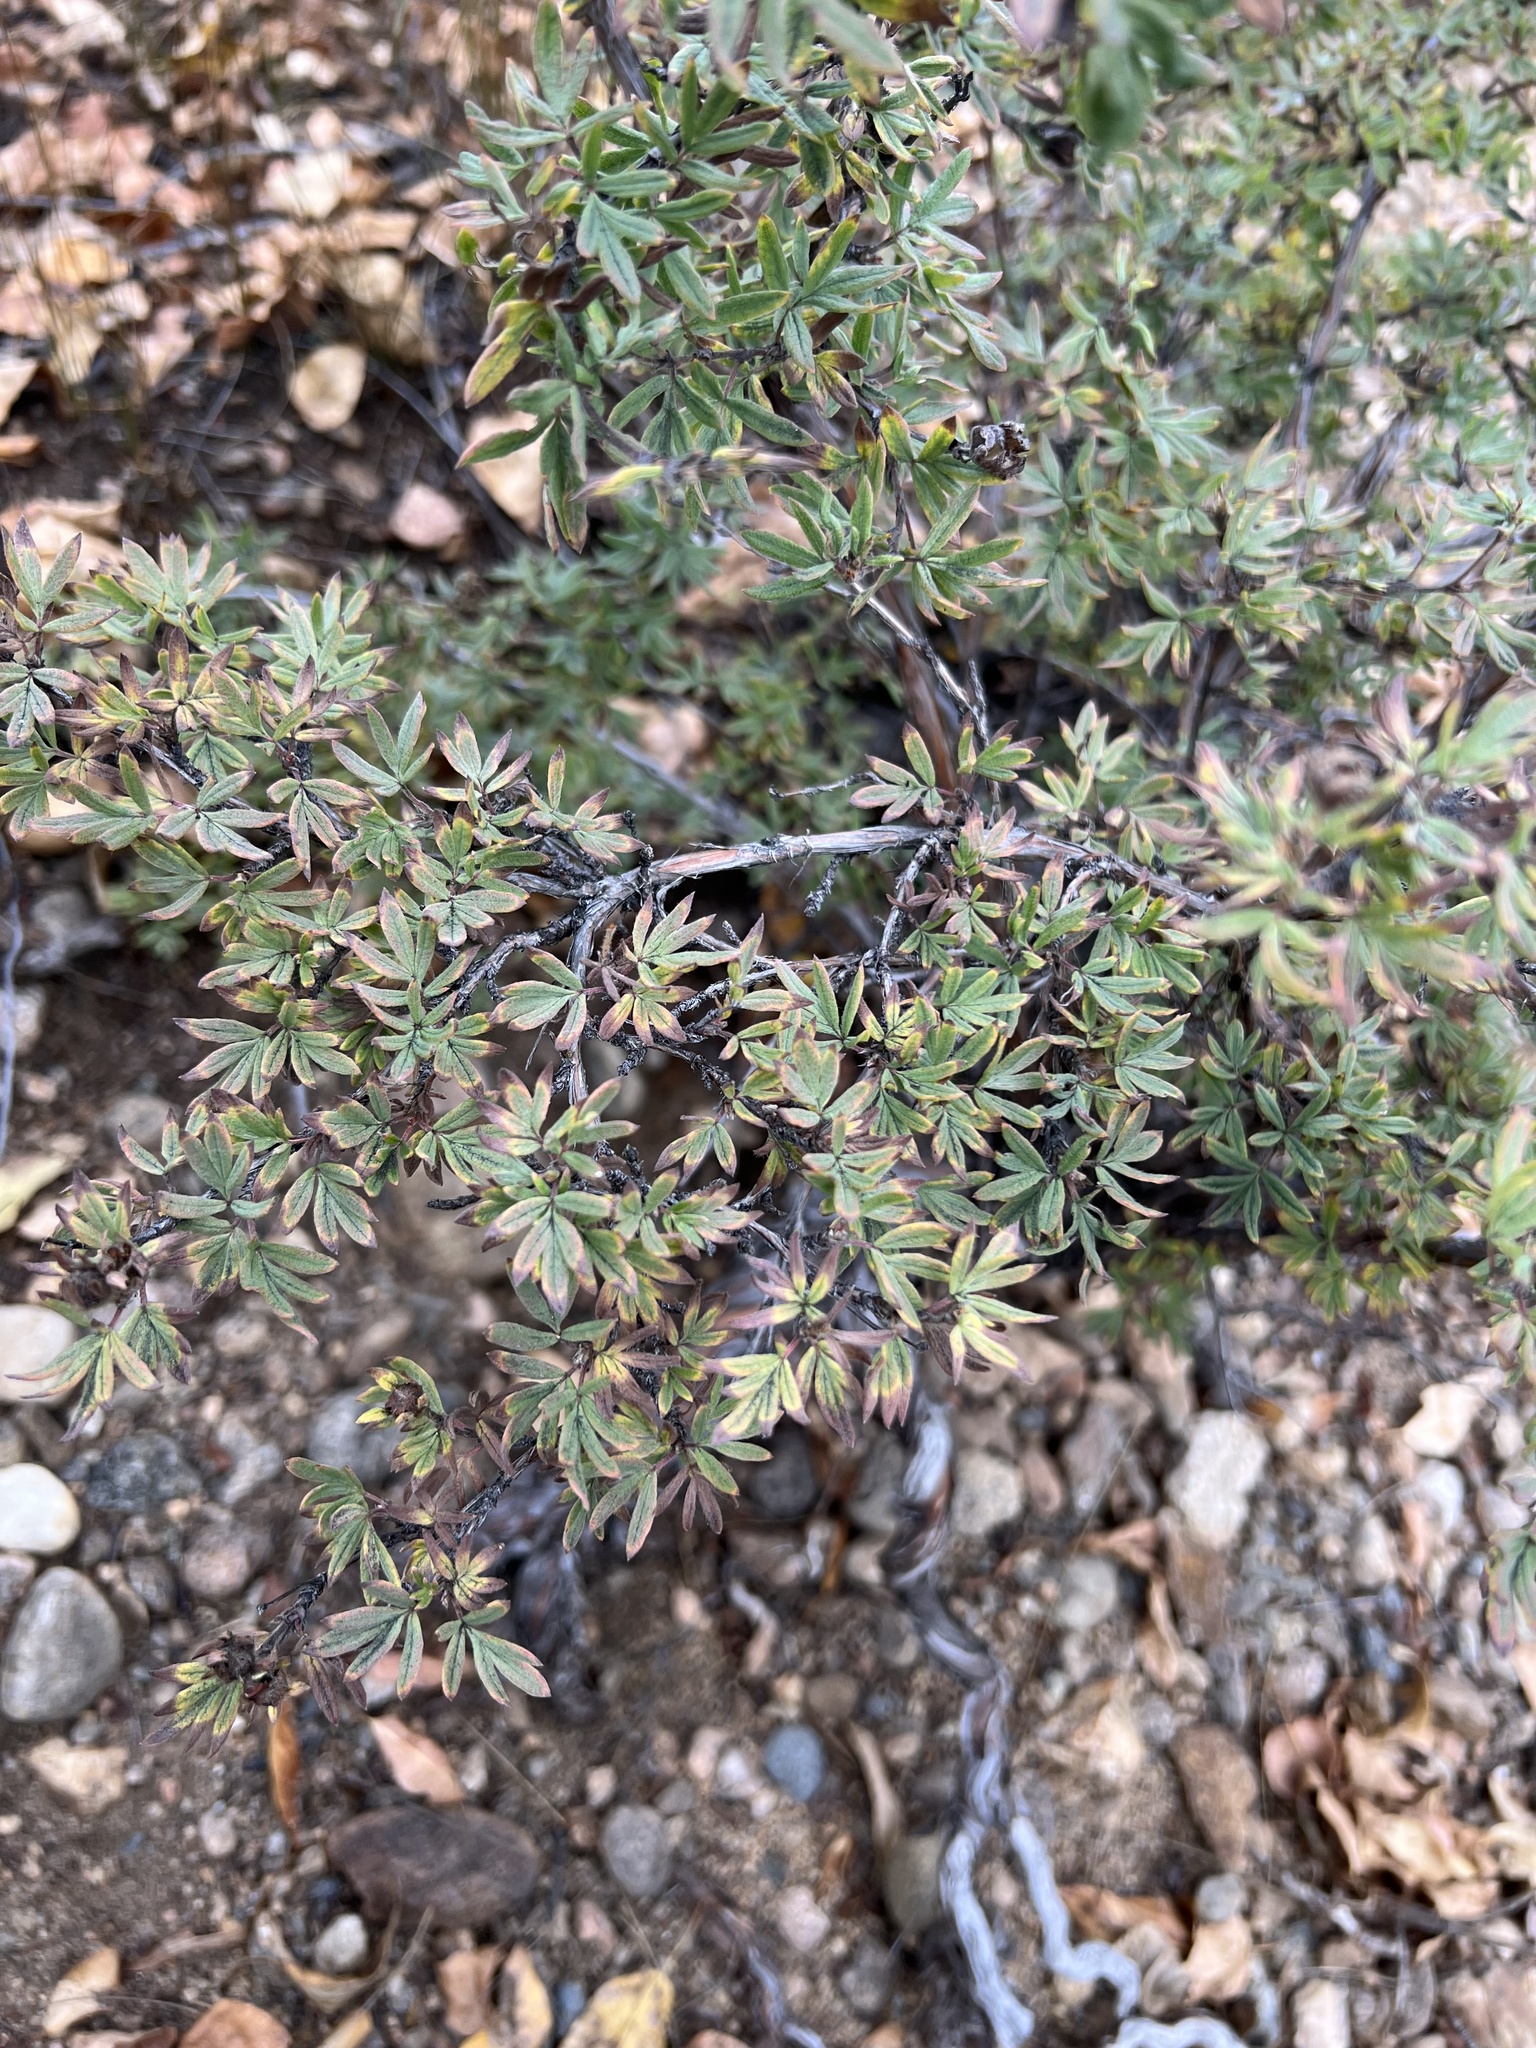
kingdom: Plantae
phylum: Tracheophyta
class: Magnoliopsida
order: Rosales
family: Rosaceae
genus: Dasiphora
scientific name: Dasiphora fruticosa
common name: Shrubby cinquefoil
